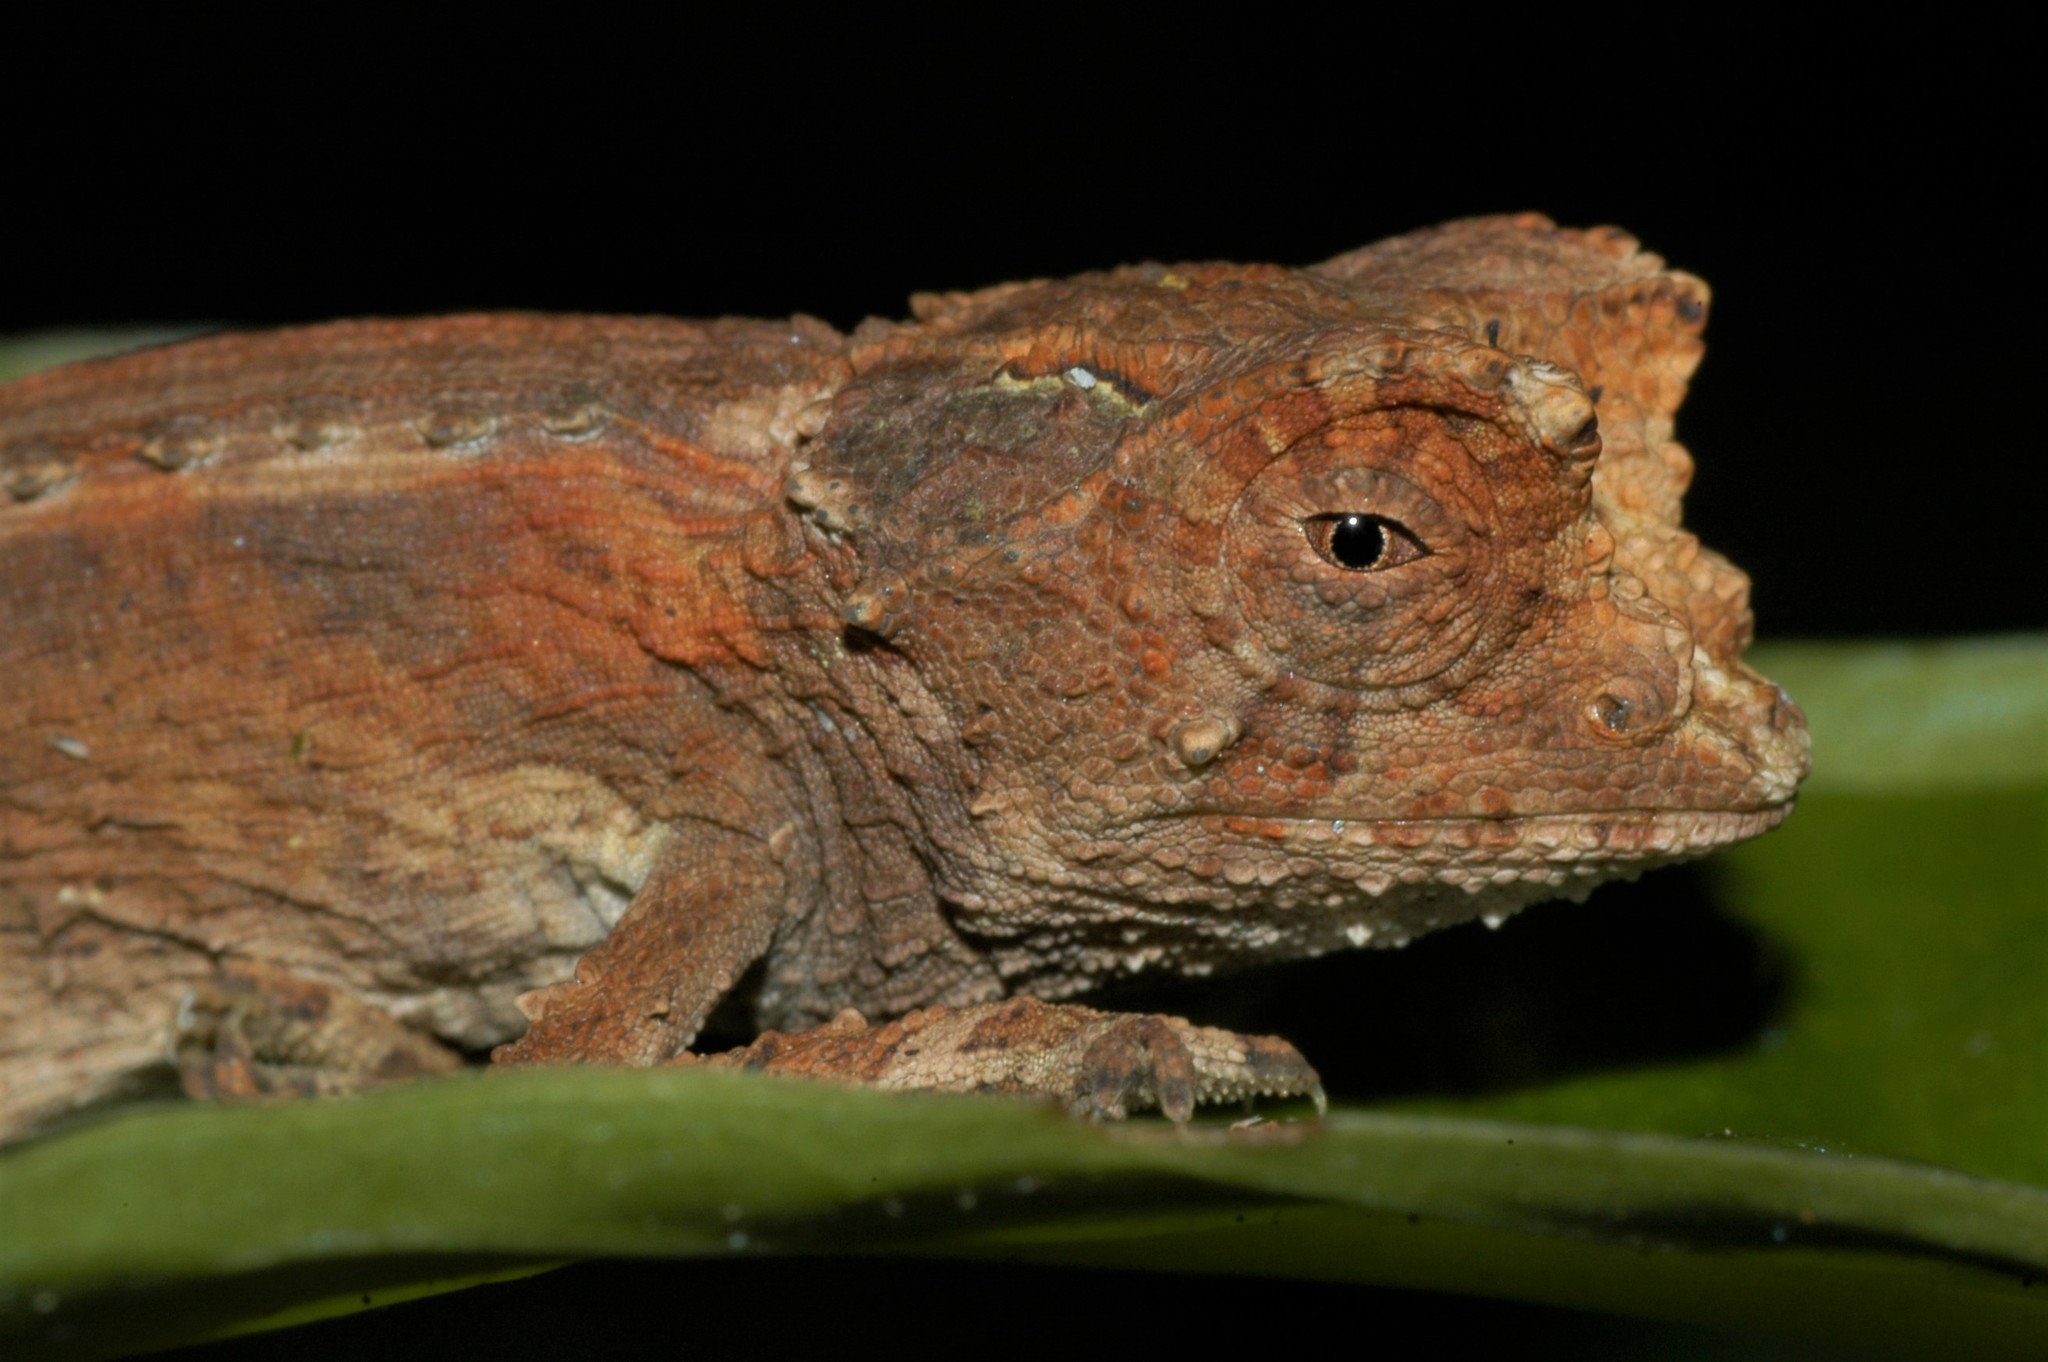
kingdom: Animalia
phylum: Chordata
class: Squamata
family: Chamaeleonidae
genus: Brookesia
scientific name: Brookesia antakarana
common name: Antakarana leaf chameleon
